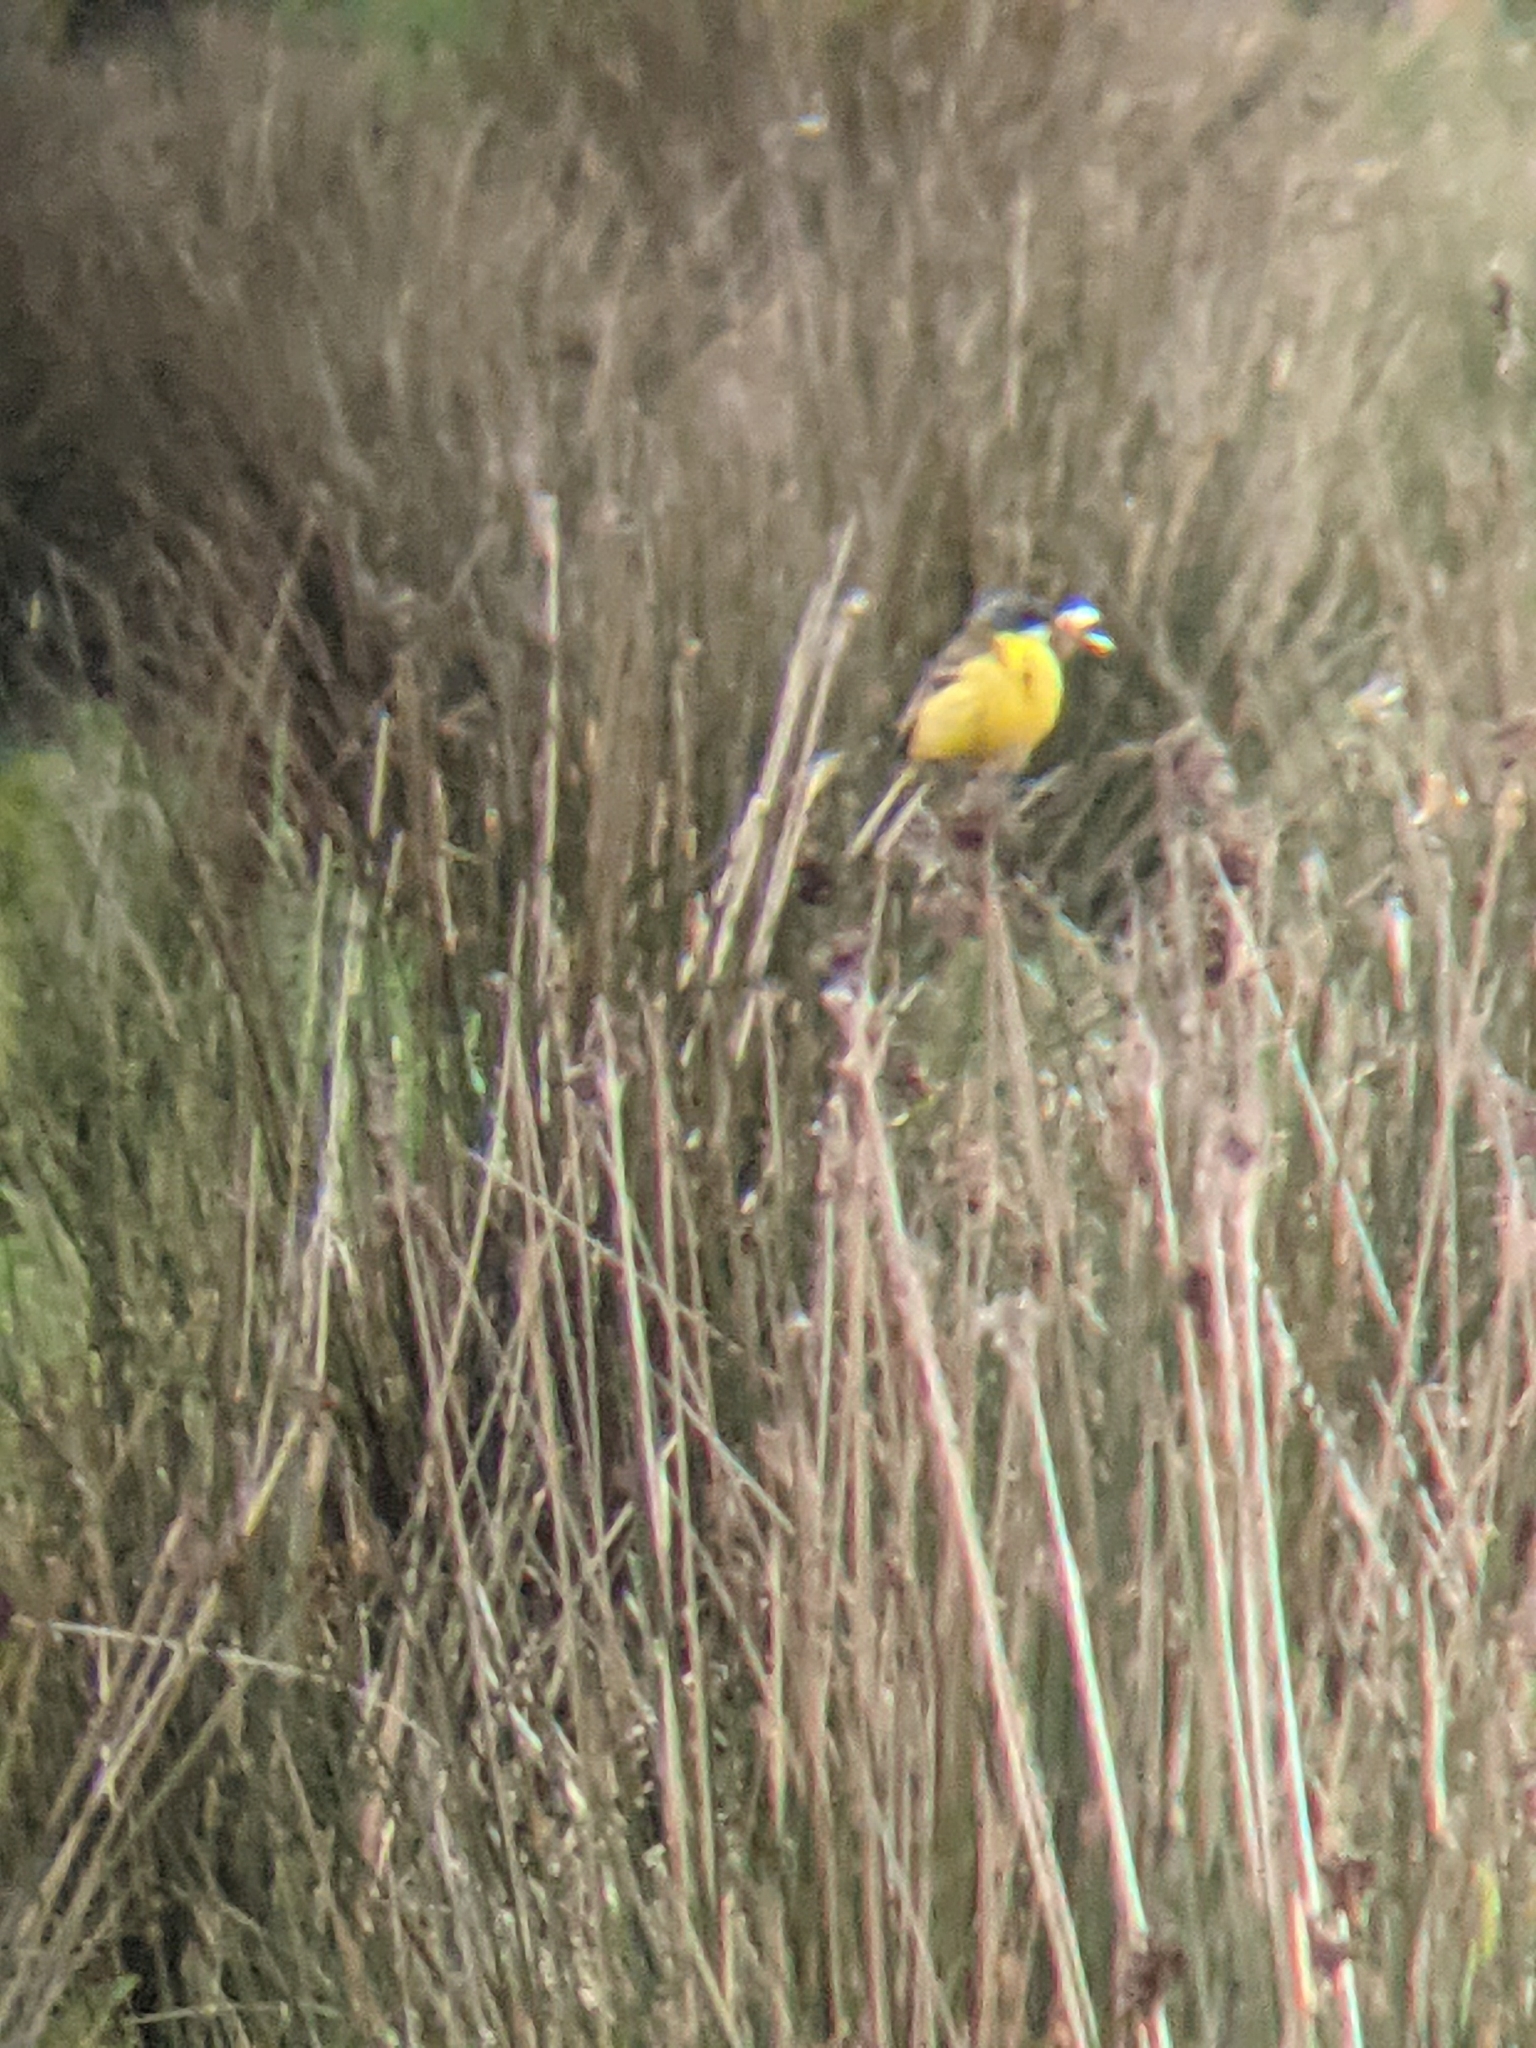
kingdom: Animalia
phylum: Chordata
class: Aves
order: Passeriformes
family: Motacillidae
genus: Motacilla
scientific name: Motacilla flava
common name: Western yellow wagtail
